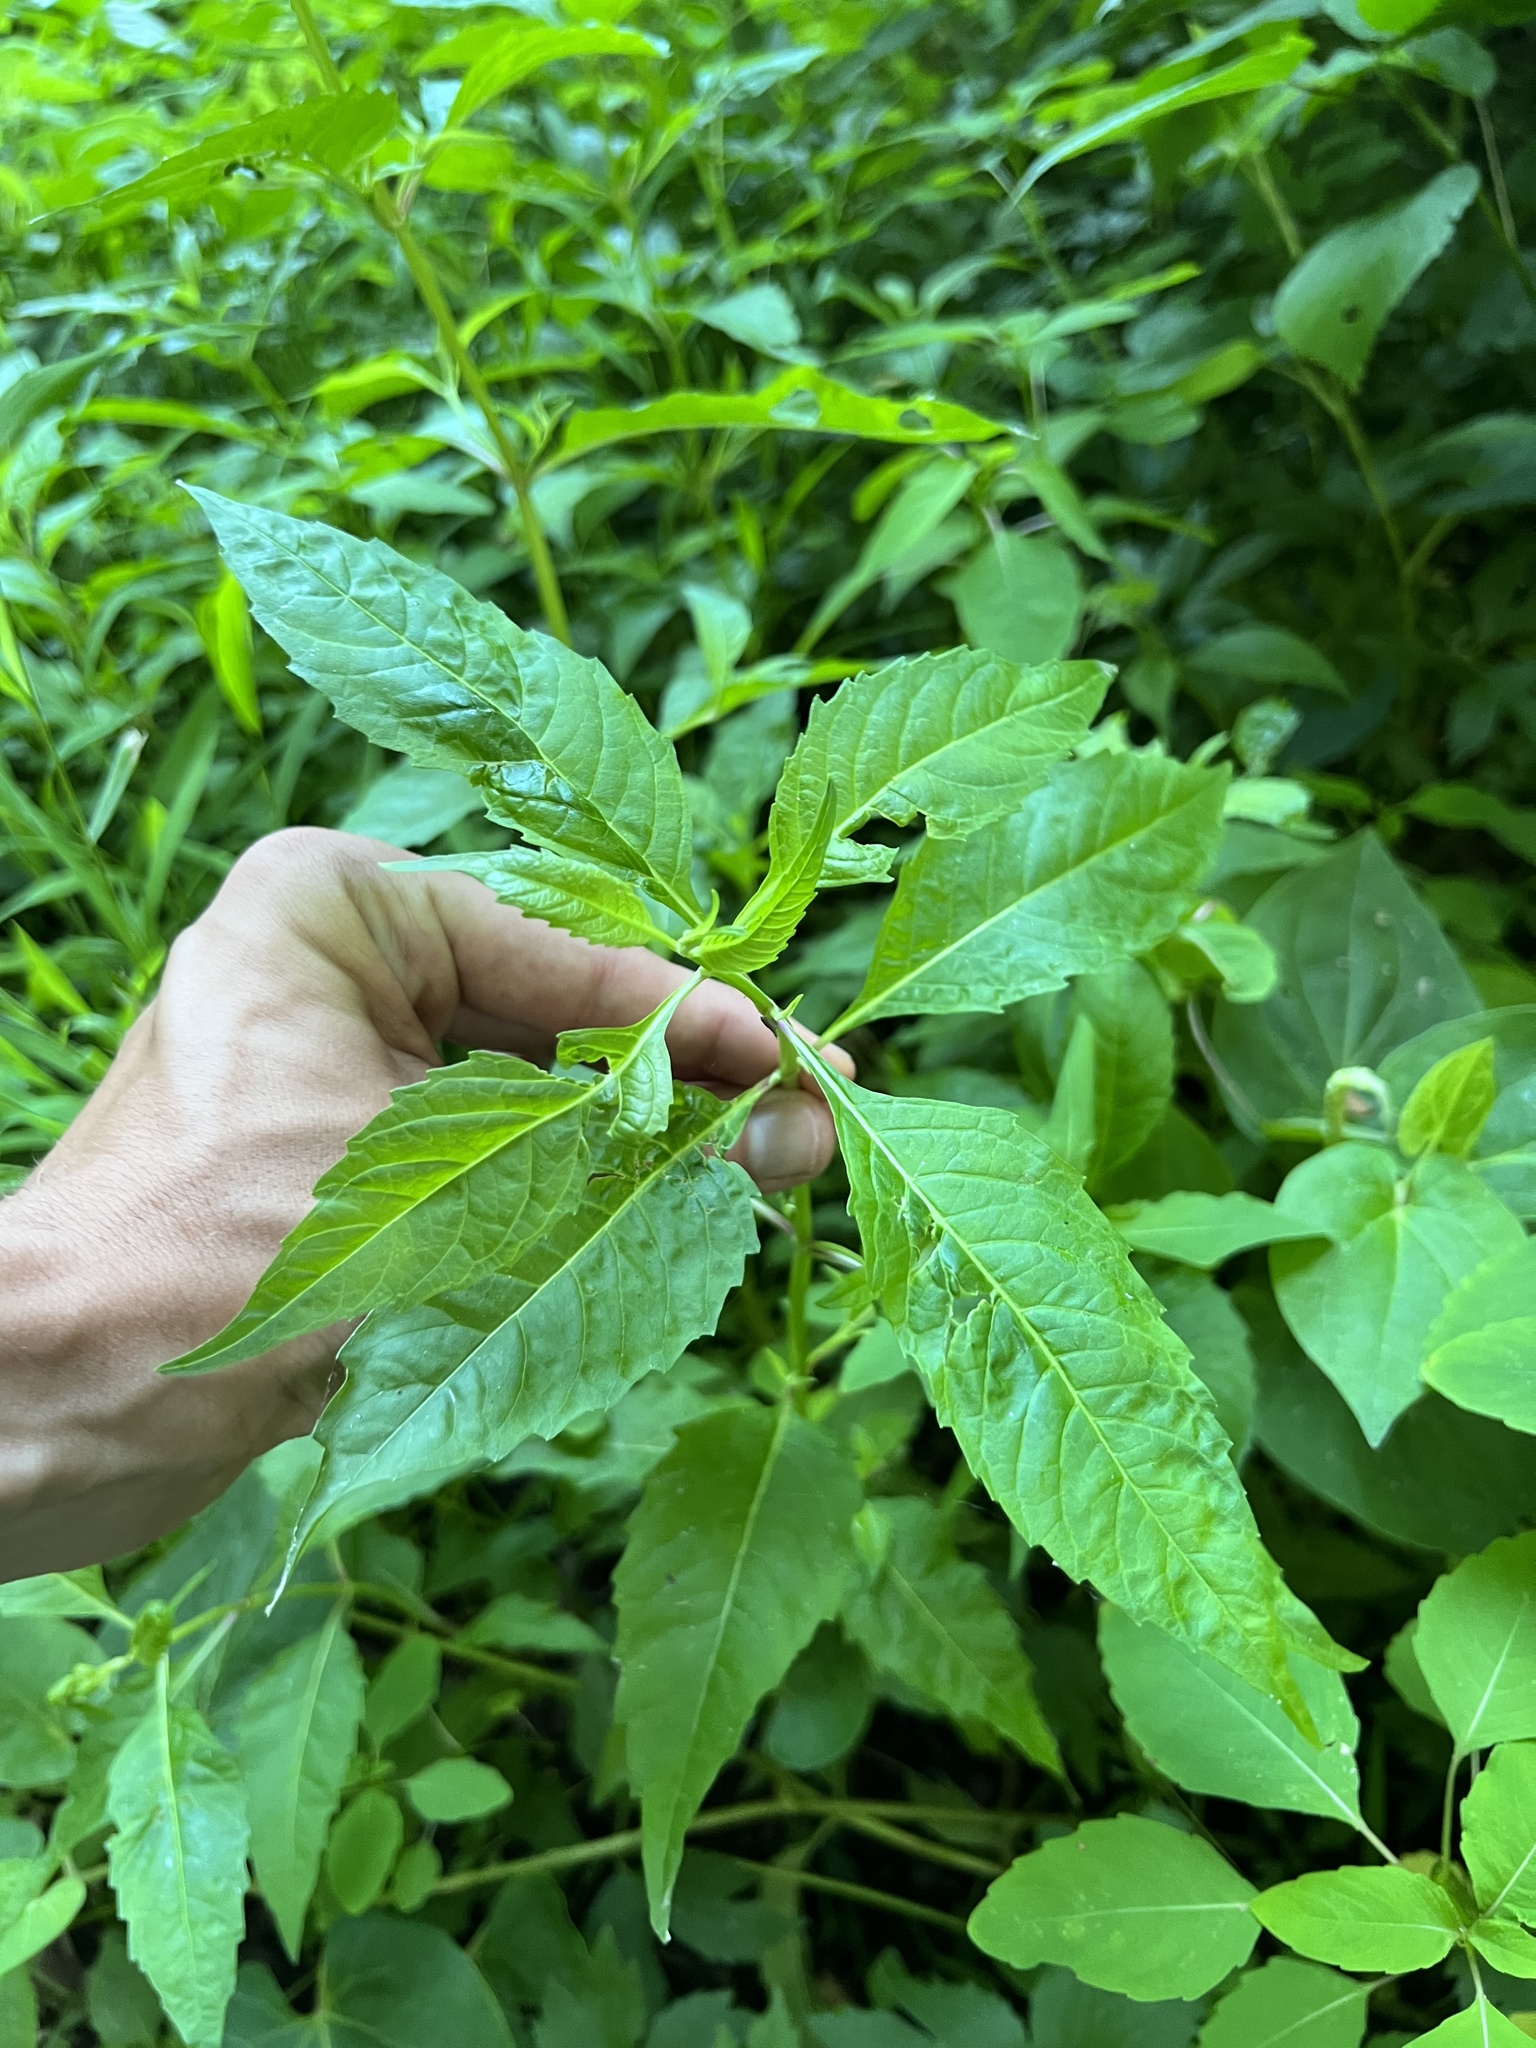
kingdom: Plantae
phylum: Tracheophyta
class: Magnoliopsida
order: Lamiales
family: Phrymaceae
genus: Mimulus
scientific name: Mimulus alatus
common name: Sharp-wing monkey-flower
